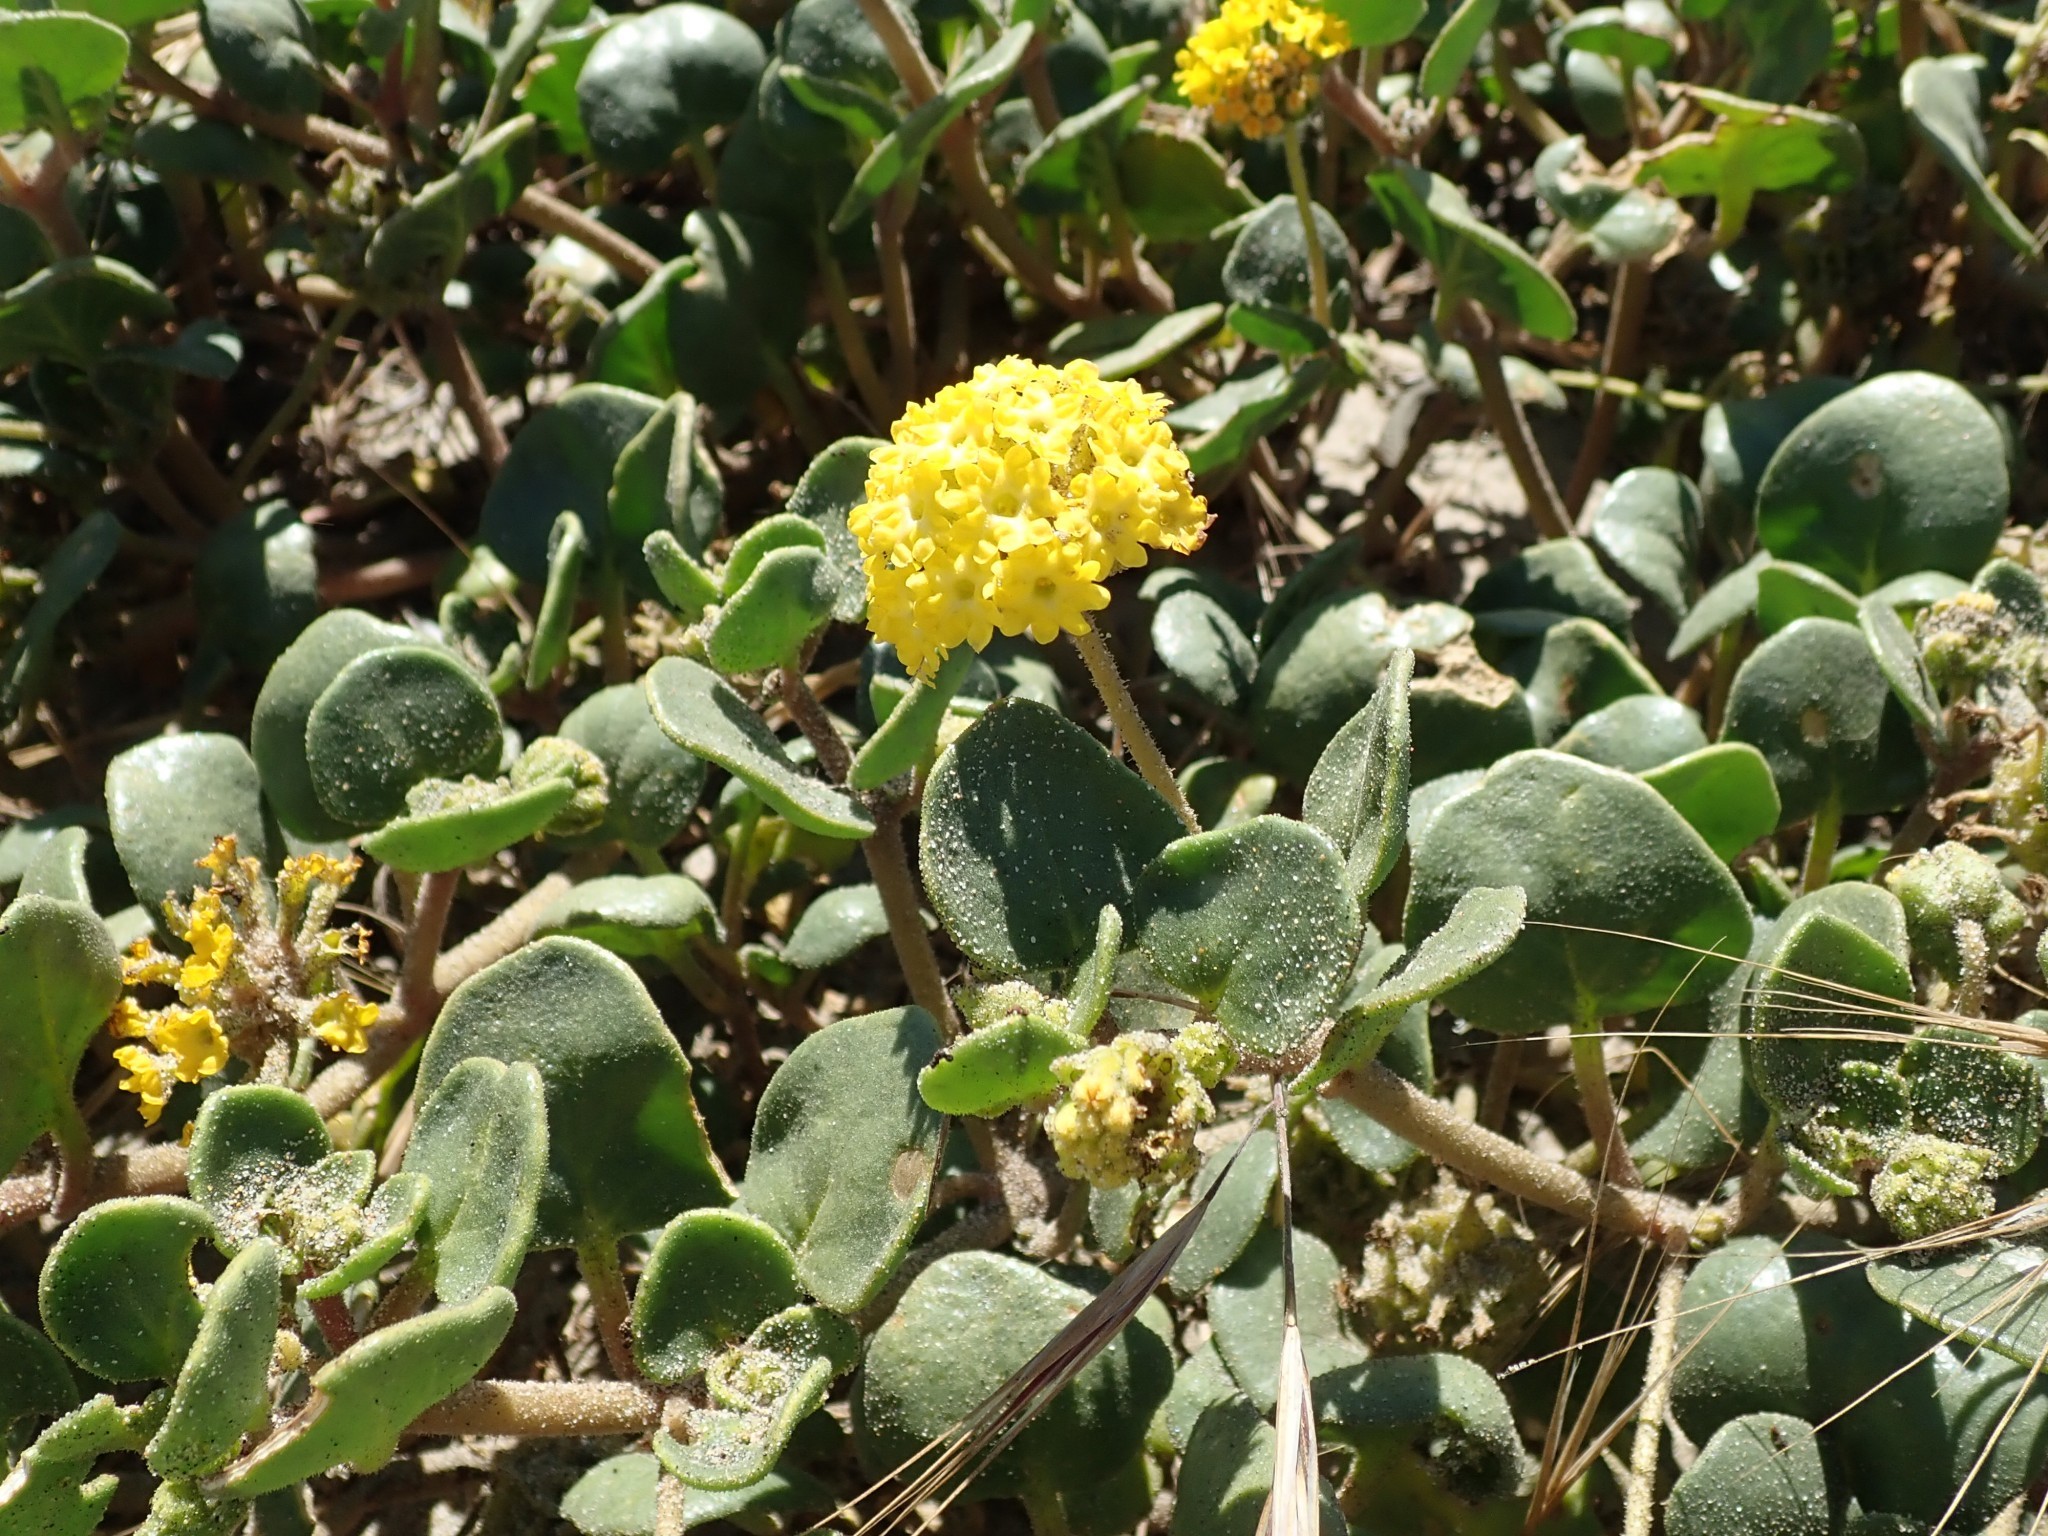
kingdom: Plantae
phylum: Tracheophyta
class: Magnoliopsida
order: Caryophyllales
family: Nyctaginaceae
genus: Abronia
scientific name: Abronia latifolia
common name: Yellow sand-verbena
